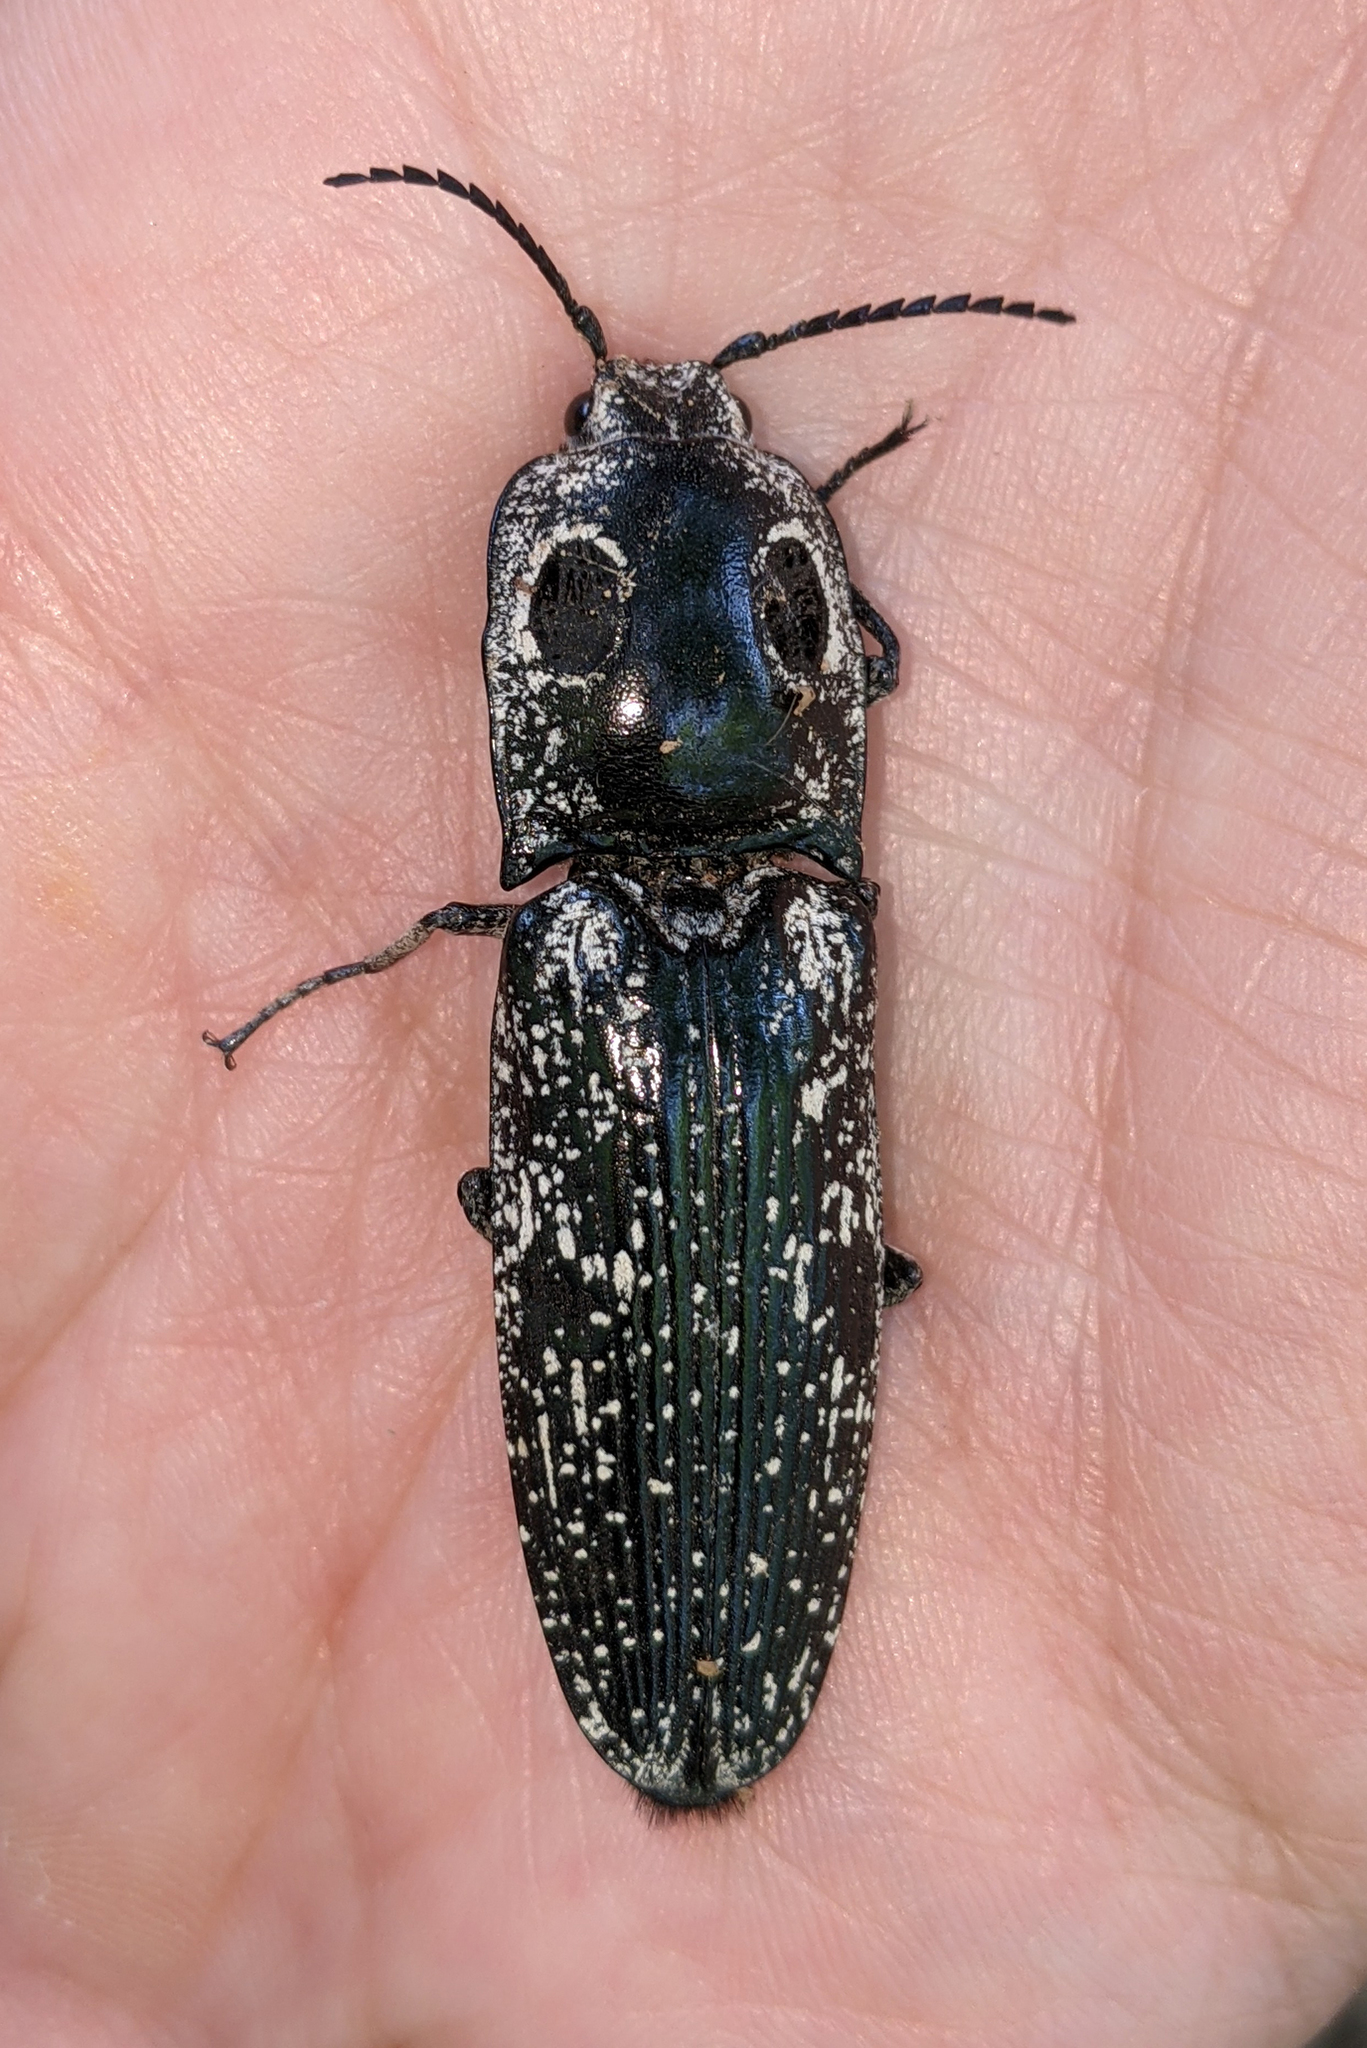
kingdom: Animalia
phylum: Arthropoda
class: Insecta
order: Coleoptera
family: Elateridae
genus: Alaus
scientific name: Alaus oculatus
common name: Eastern eyed click beetle
